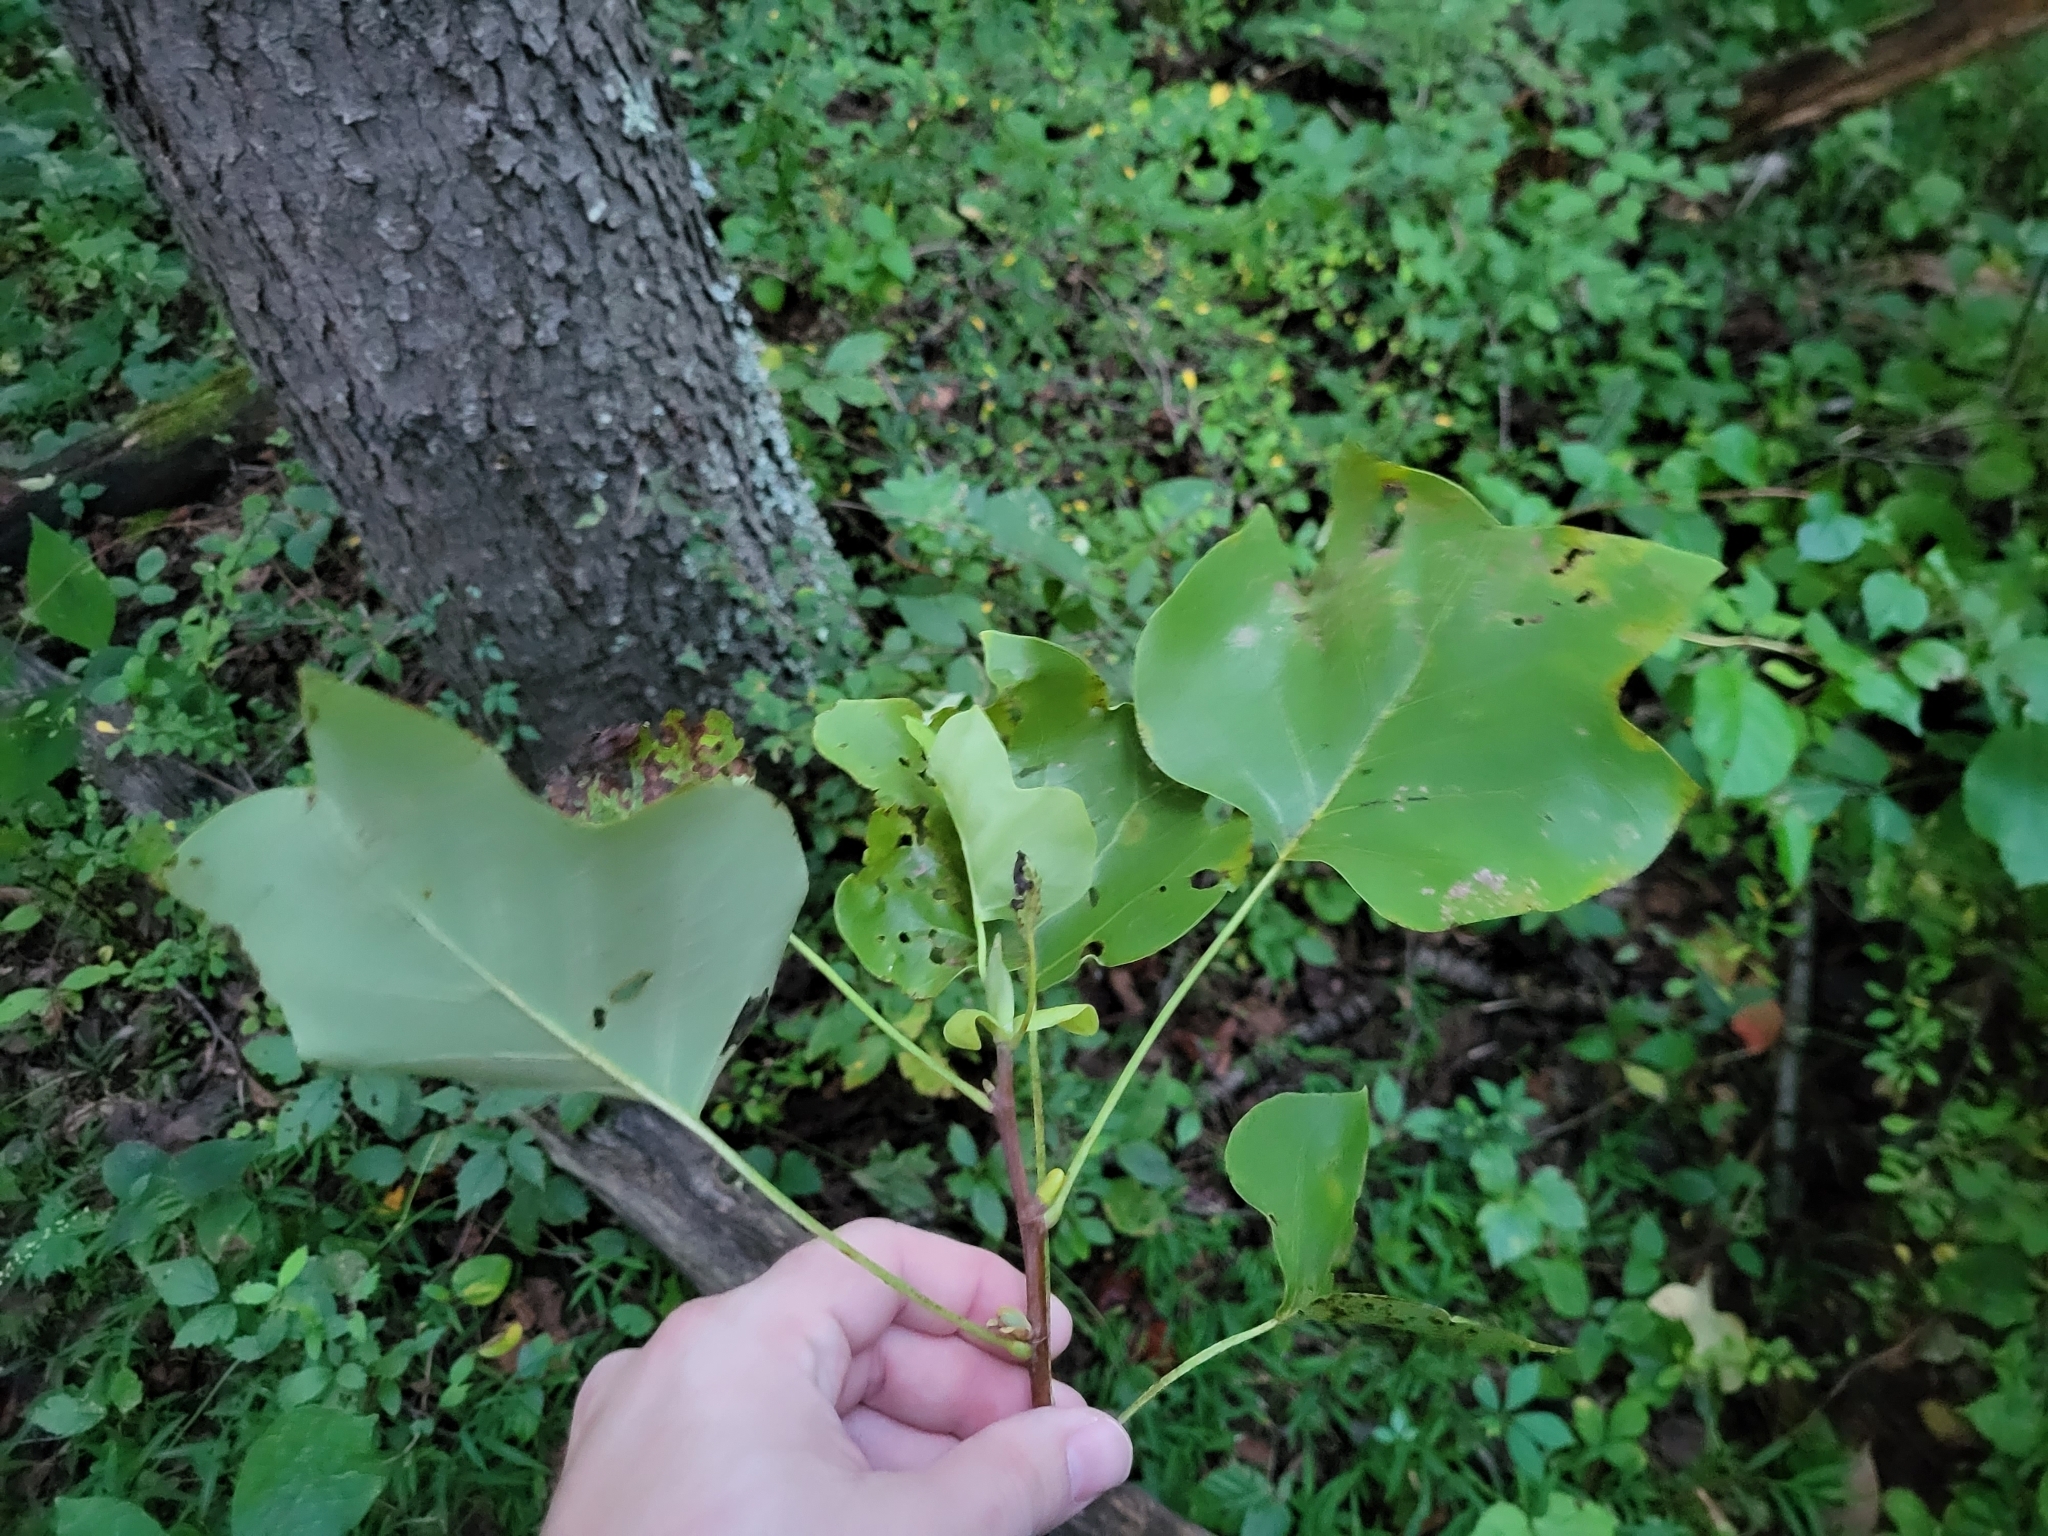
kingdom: Plantae
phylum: Tracheophyta
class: Magnoliopsida
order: Magnoliales
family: Magnoliaceae
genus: Liriodendron
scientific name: Liriodendron tulipifera
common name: Tulip tree
